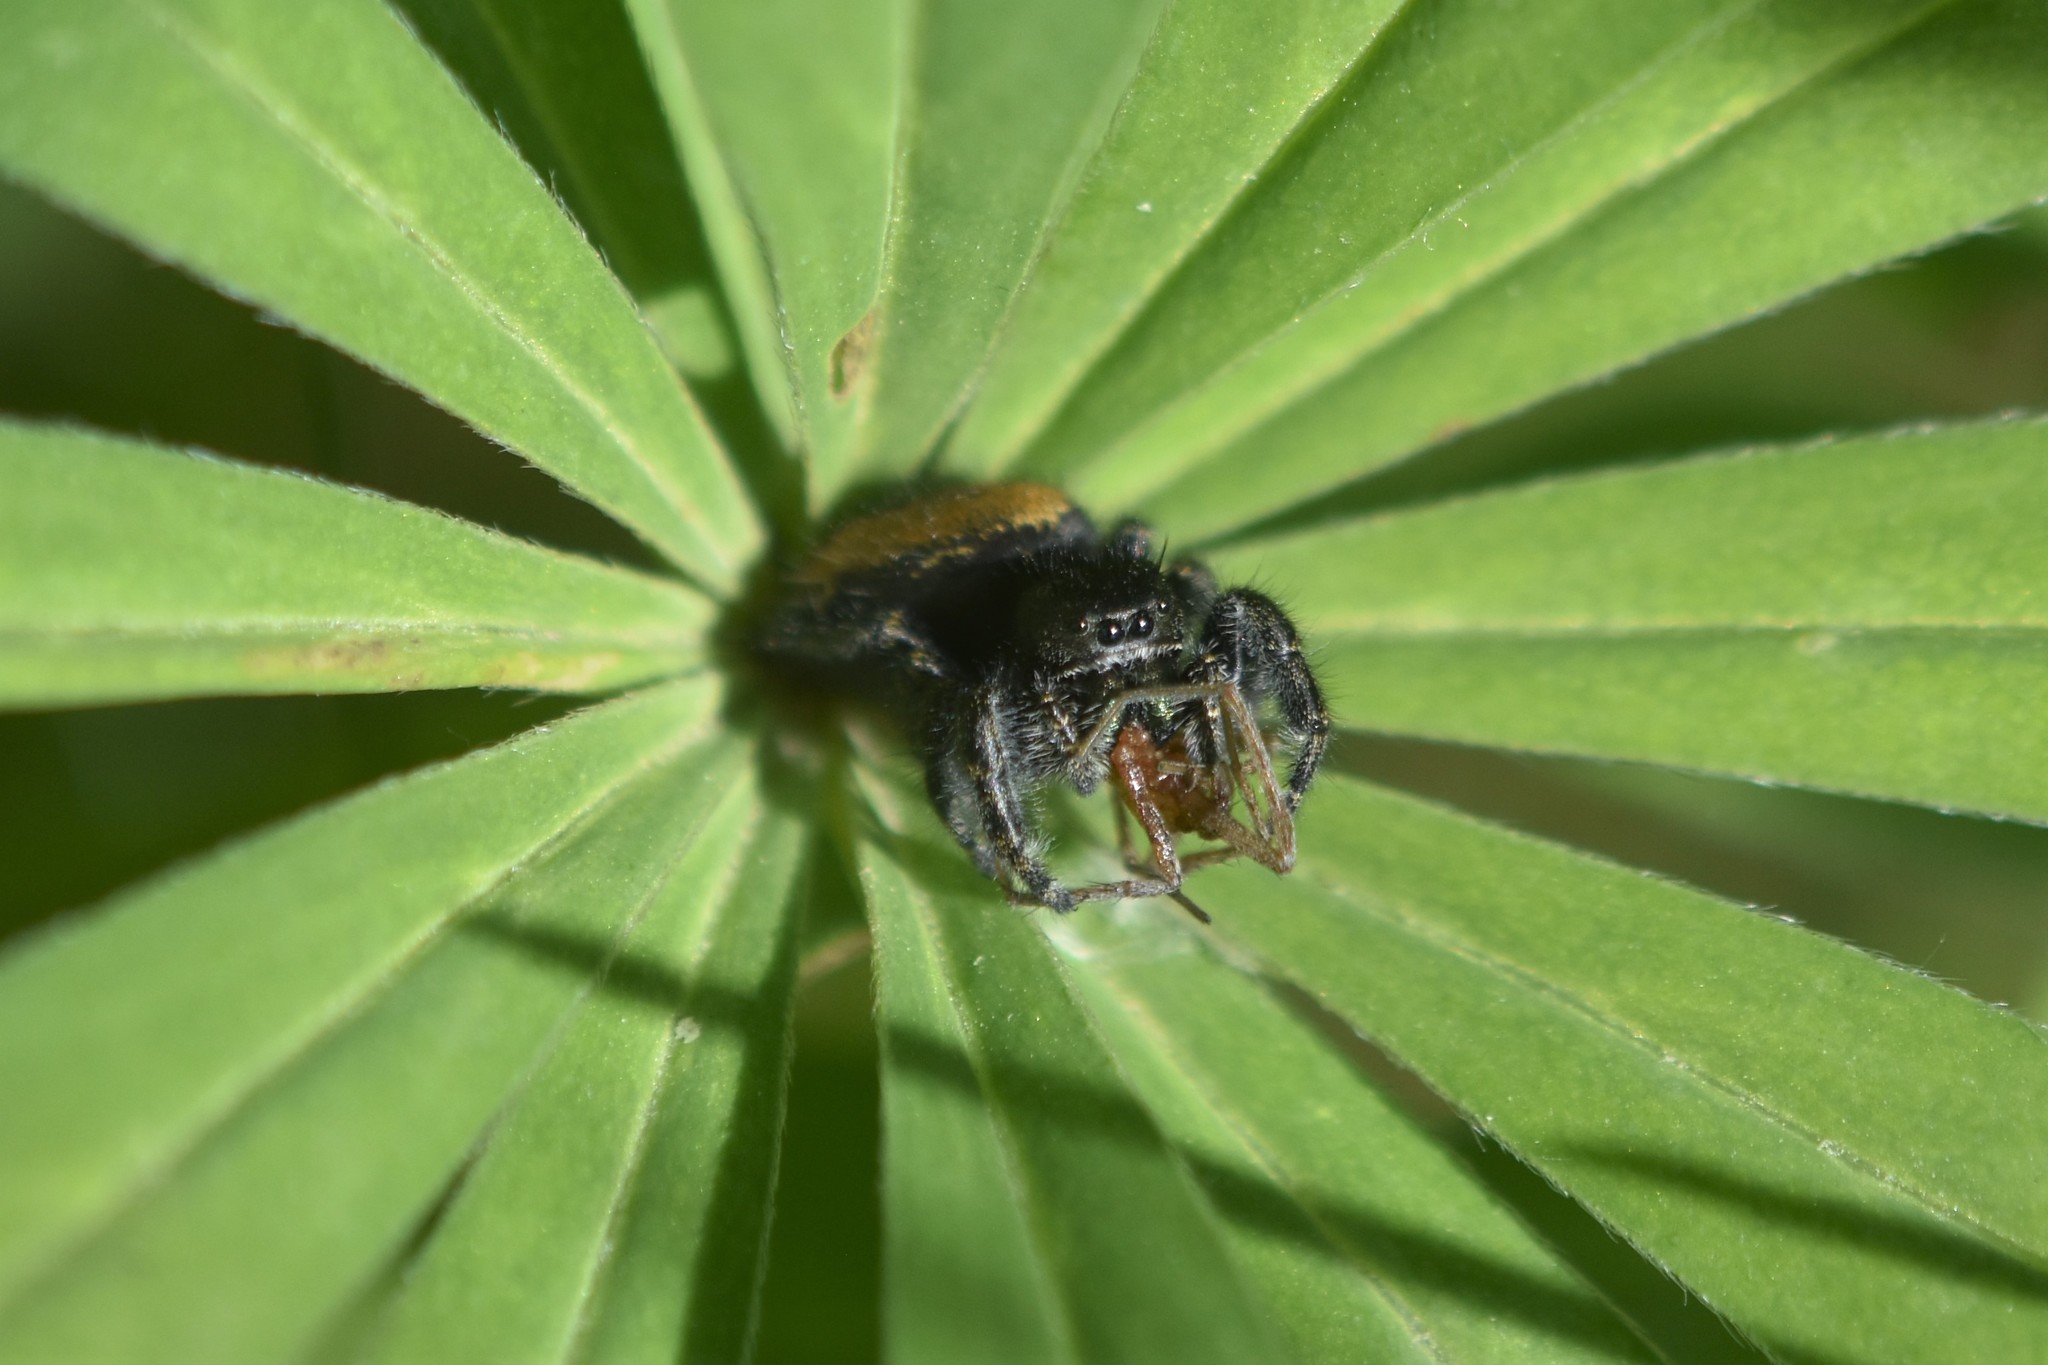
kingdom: Animalia
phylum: Arthropoda
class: Arachnida
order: Araneae
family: Salticidae
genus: Phidippus
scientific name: Phidippus johnsoni
